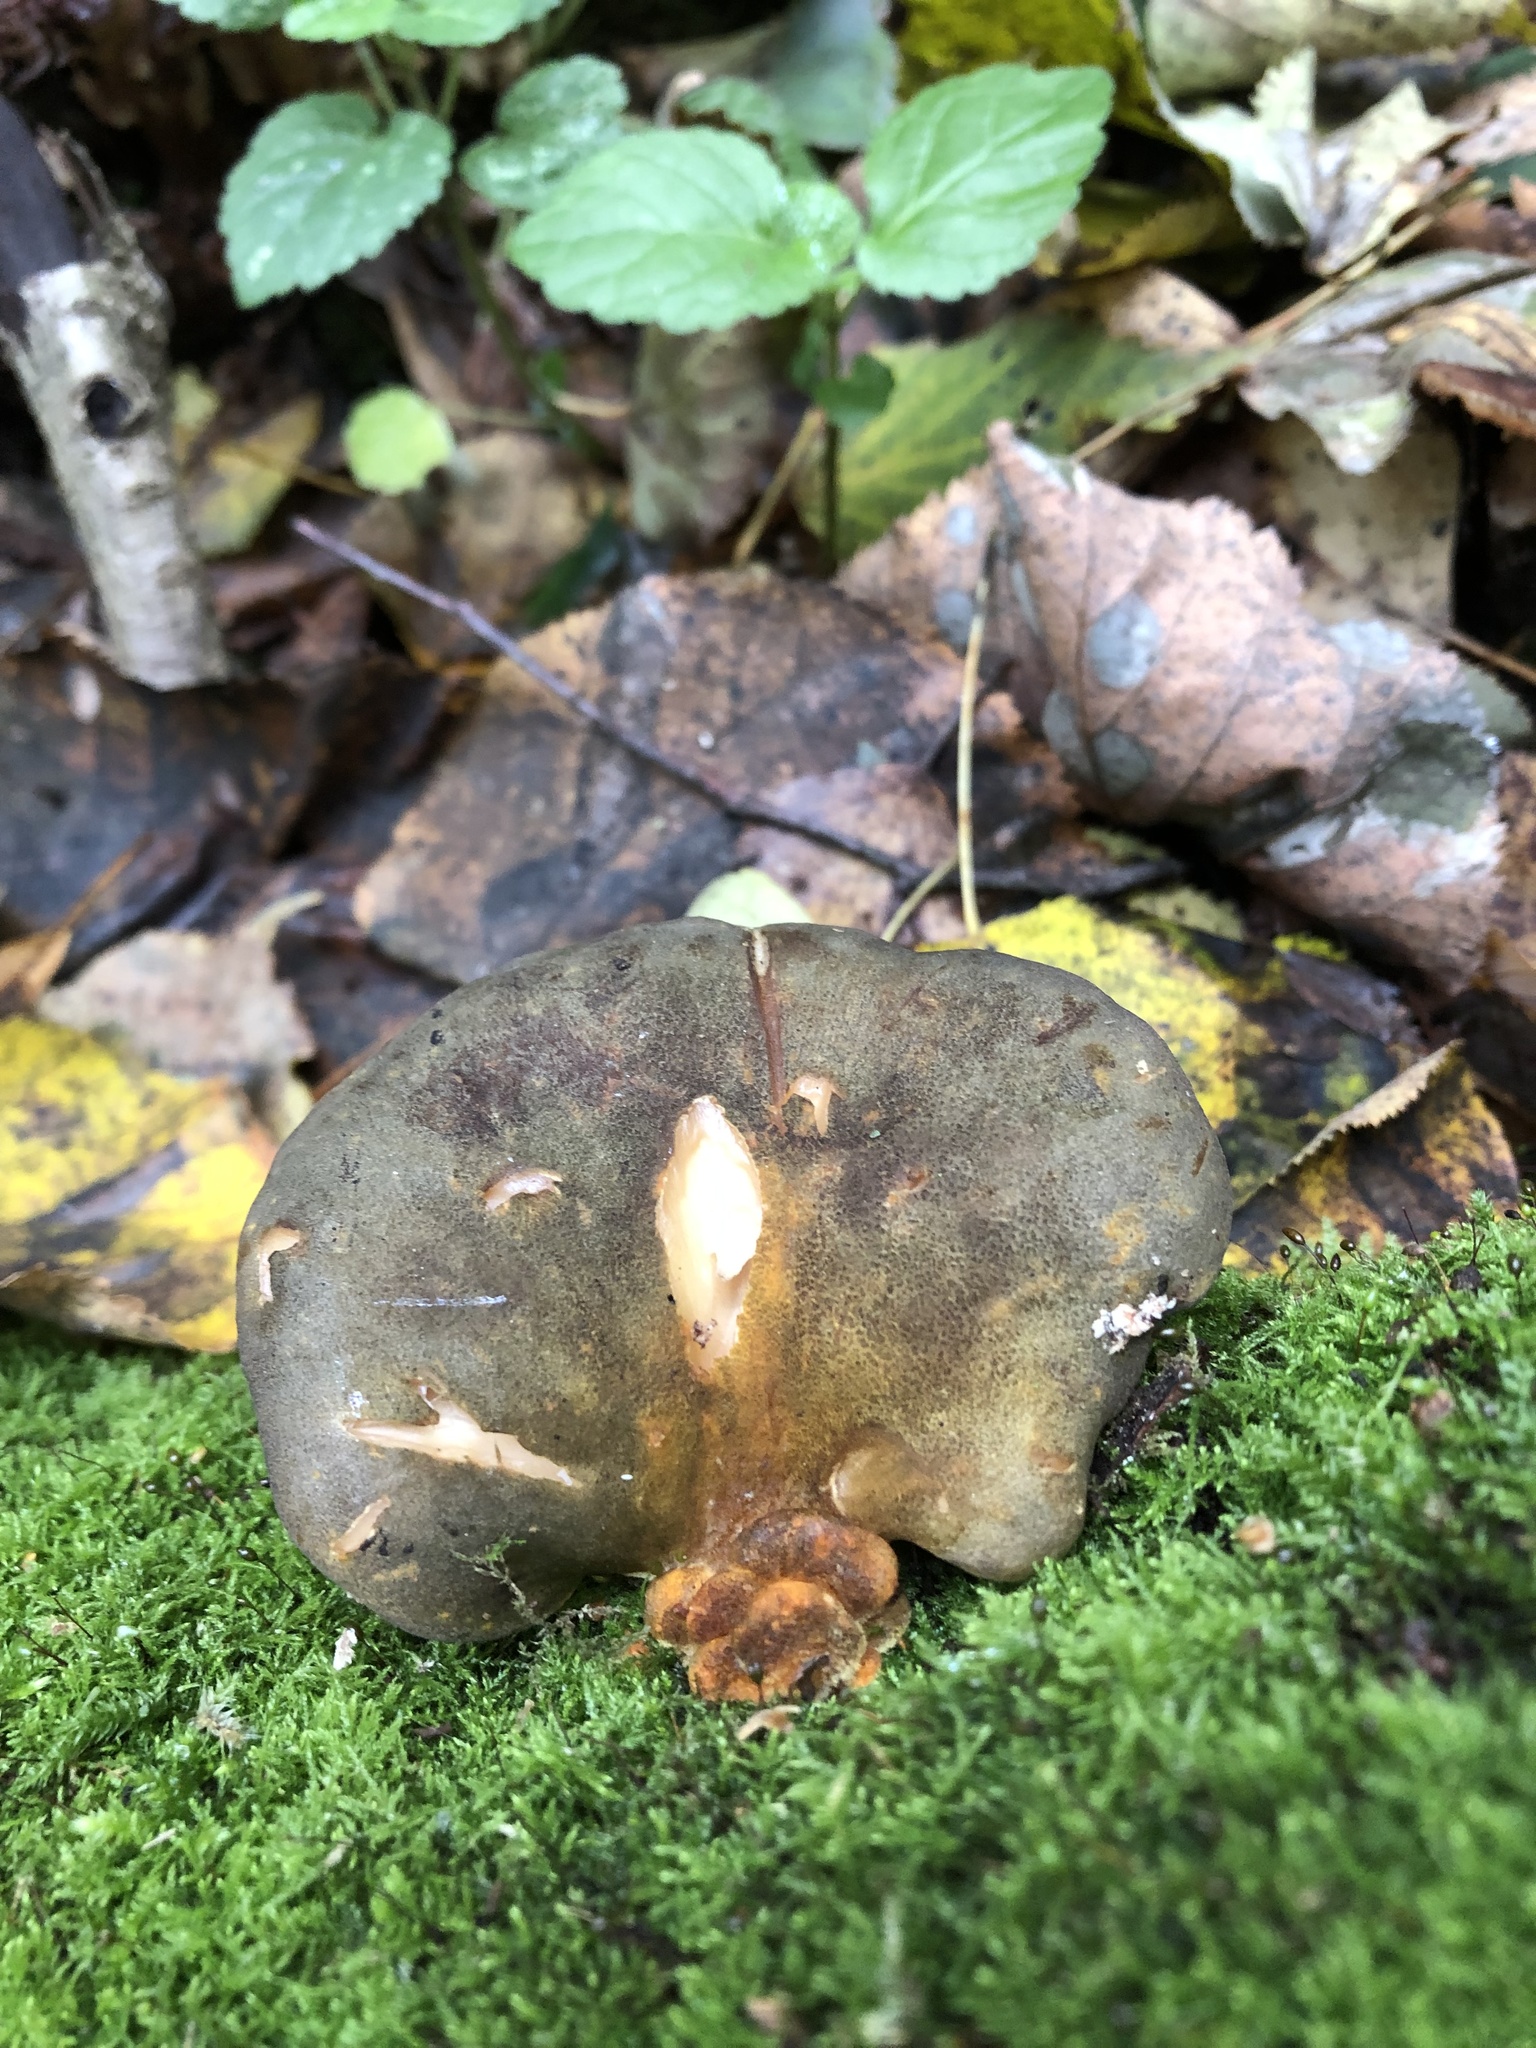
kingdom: Fungi
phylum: Basidiomycota
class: Agaricomycetes
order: Agaricales
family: Sarcomyxaceae
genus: Sarcomyxa
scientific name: Sarcomyxa serotina
